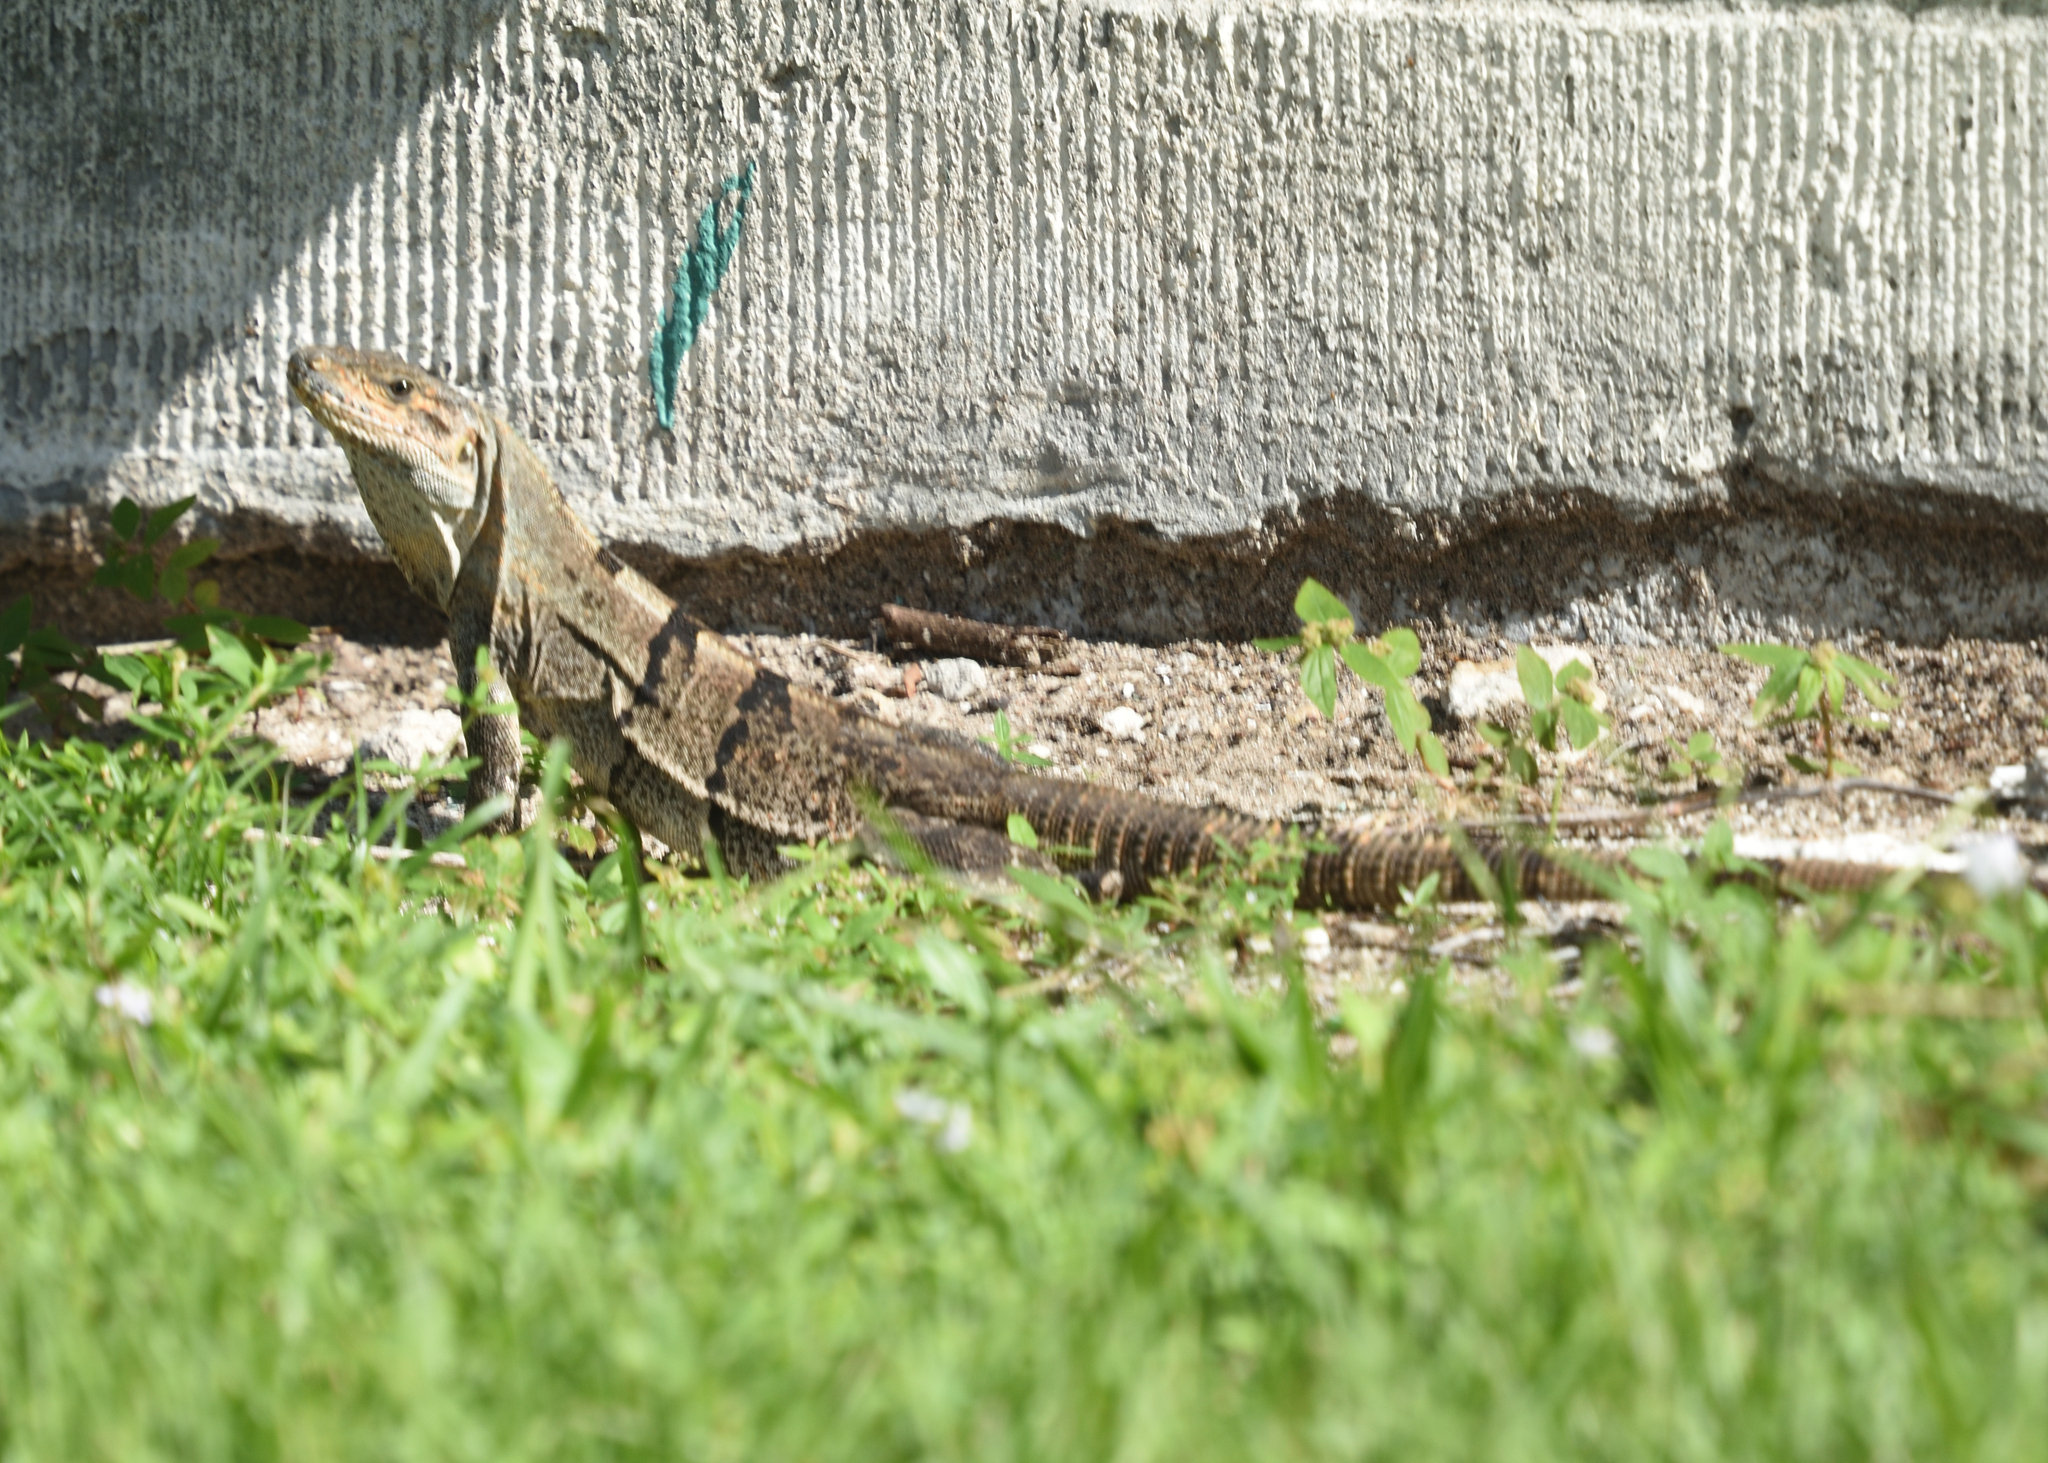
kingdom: Animalia
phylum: Chordata
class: Squamata
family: Iguanidae
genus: Ctenosaura
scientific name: Ctenosaura similis
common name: Black spiny-tailed iguana
